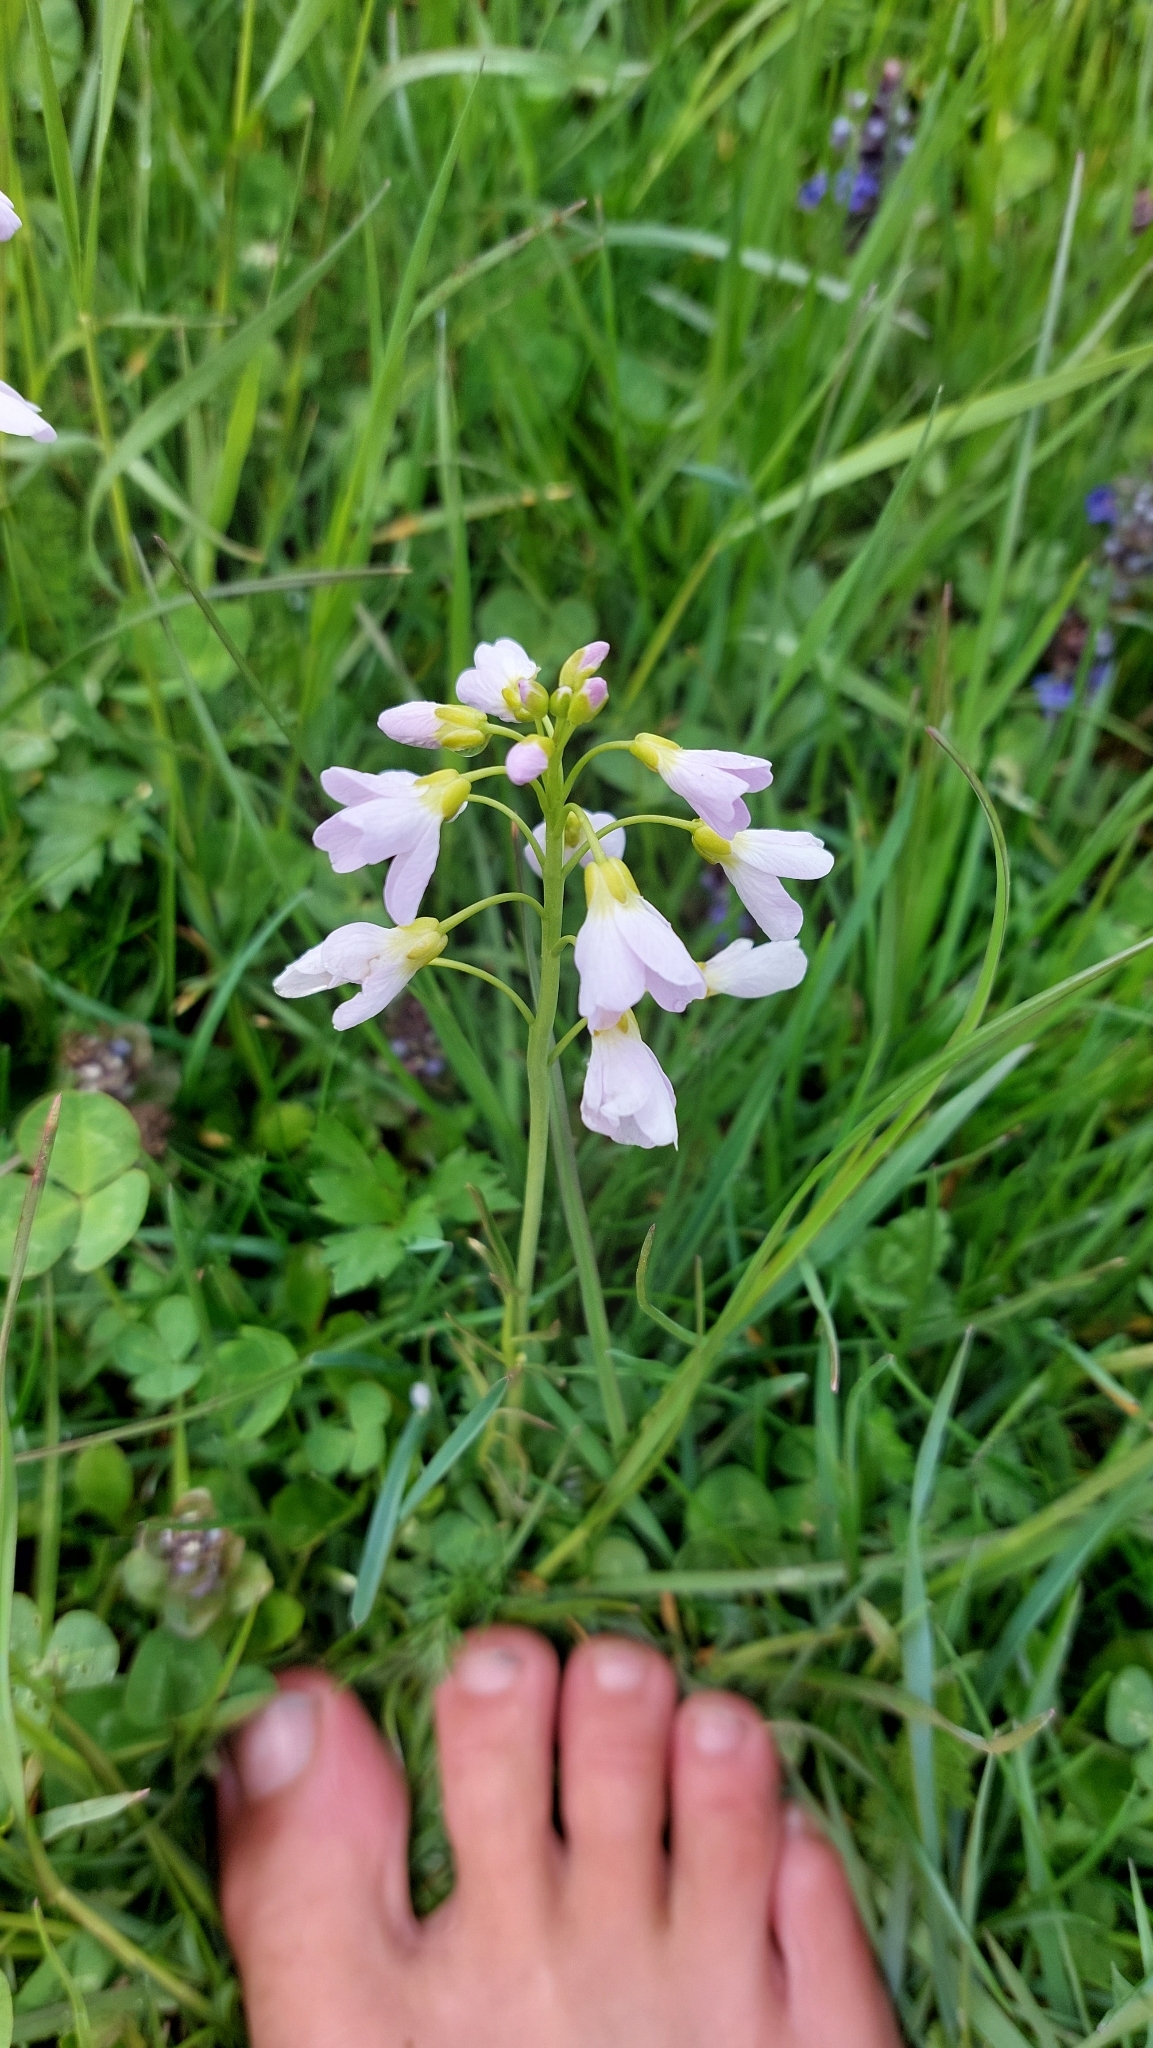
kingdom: Plantae
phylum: Tracheophyta
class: Magnoliopsida
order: Brassicales
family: Brassicaceae
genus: Cardamine
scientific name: Cardamine pratensis
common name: Cuckoo flower
